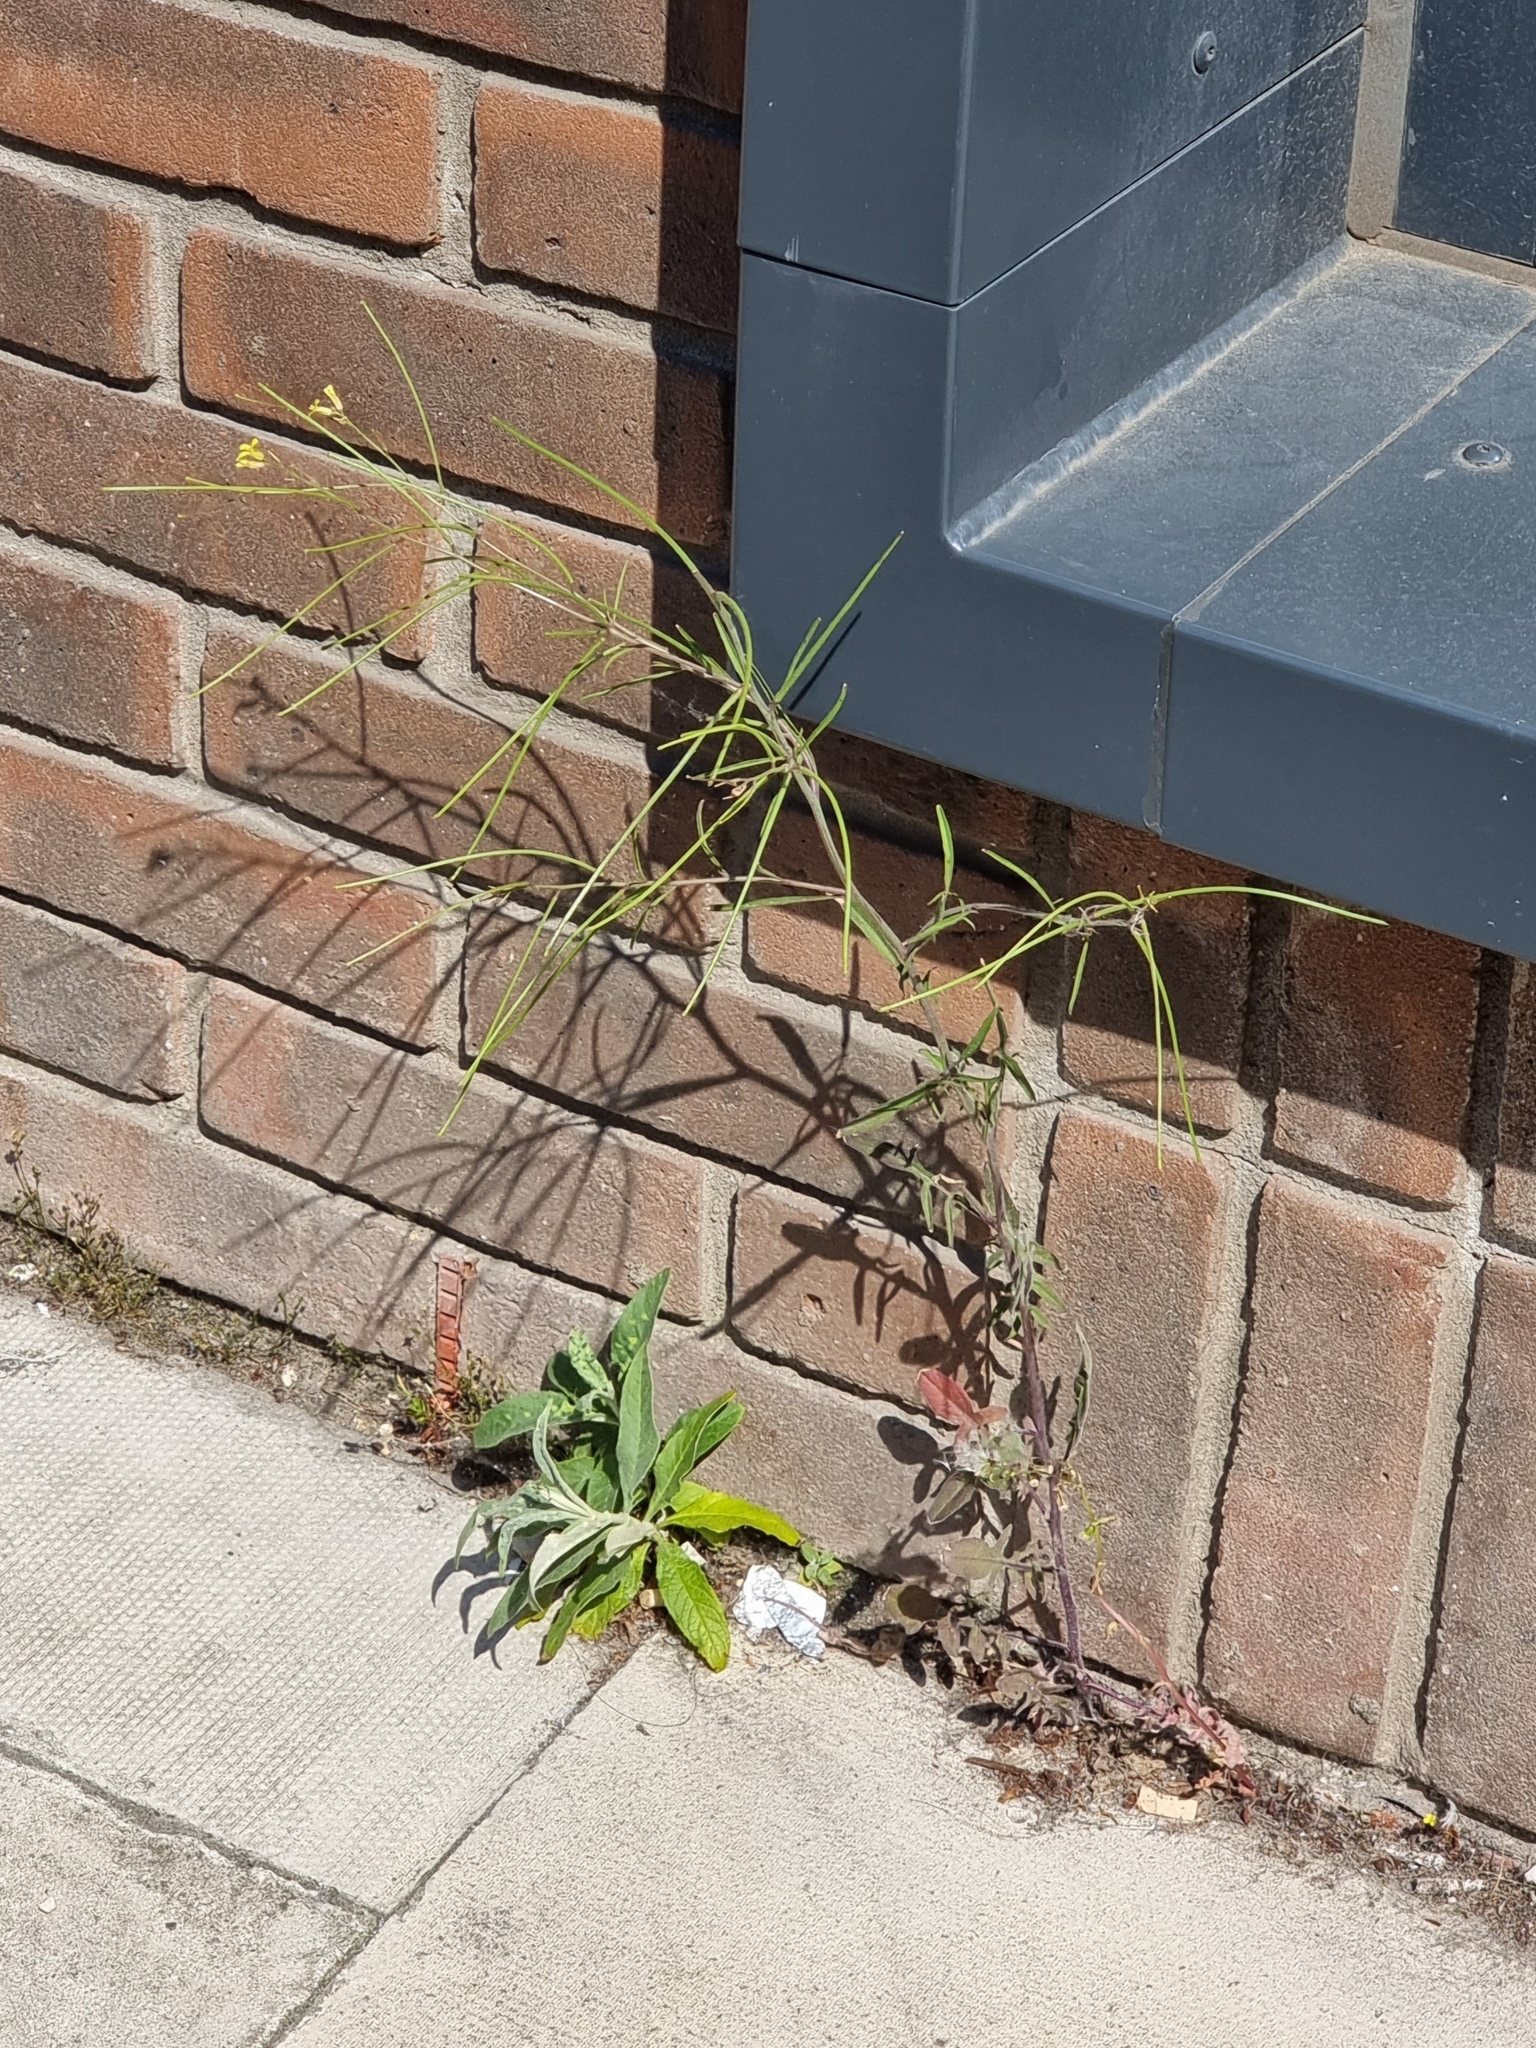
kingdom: Plantae
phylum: Tracheophyta
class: Magnoliopsida
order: Brassicales
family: Brassicaceae
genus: Sisymbrium
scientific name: Sisymbrium orientale
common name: Eastern rocket
